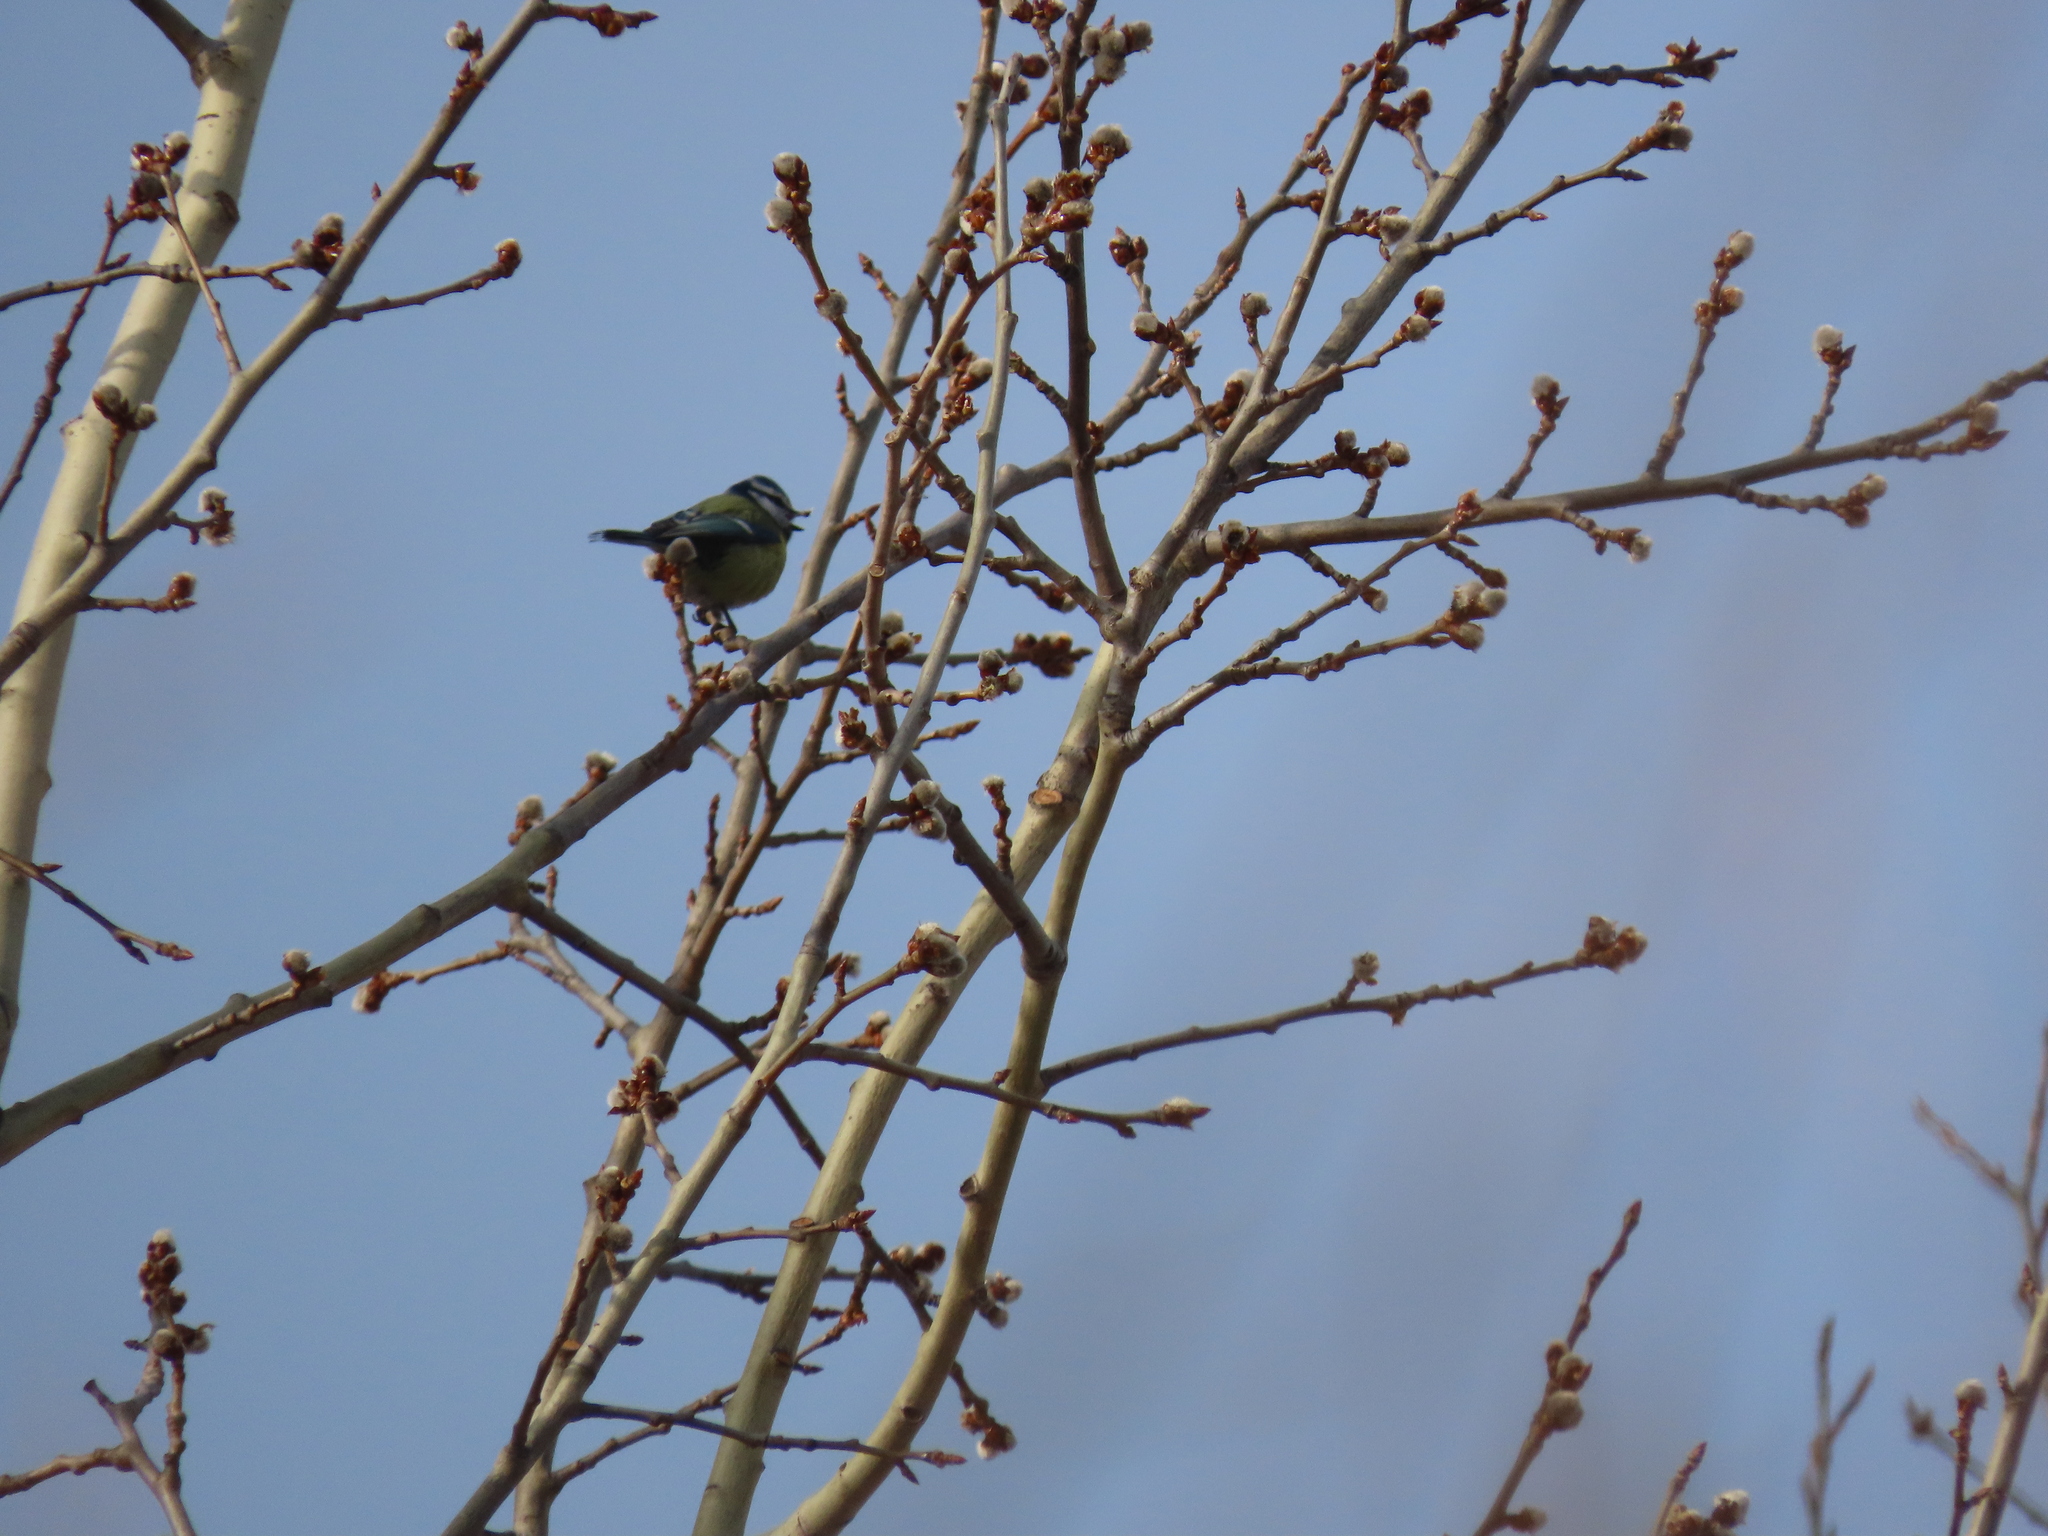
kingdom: Animalia
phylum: Chordata
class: Aves
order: Passeriformes
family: Paridae
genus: Cyanistes
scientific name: Cyanistes caeruleus
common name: Eurasian blue tit
